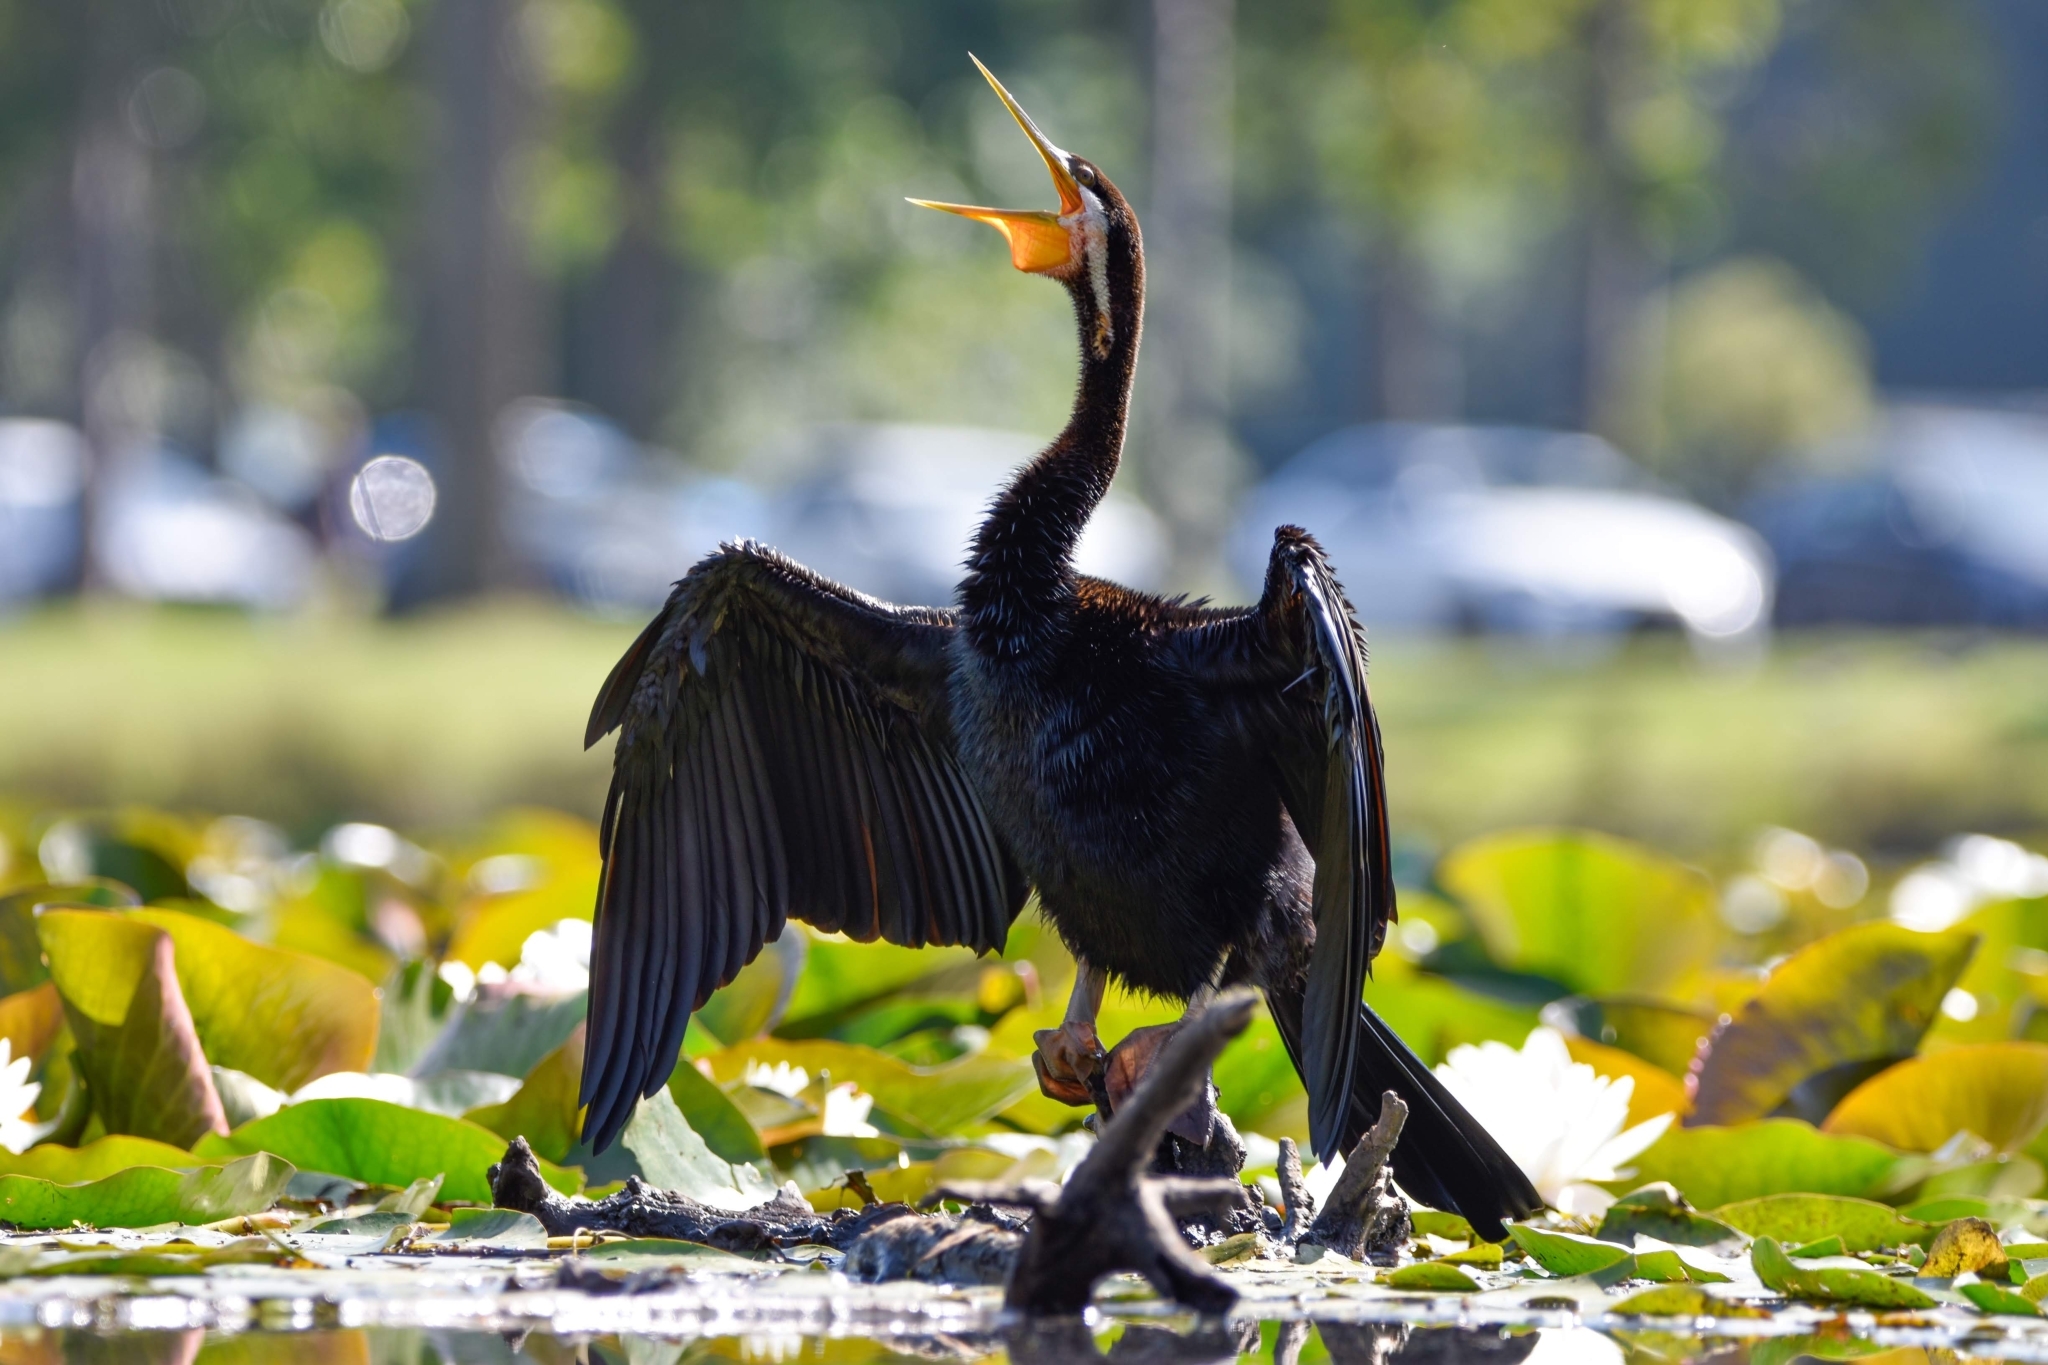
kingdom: Animalia
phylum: Chordata
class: Aves
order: Suliformes
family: Anhingidae
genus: Anhinga
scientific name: Anhinga novaehollandiae
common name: Australasian darter
